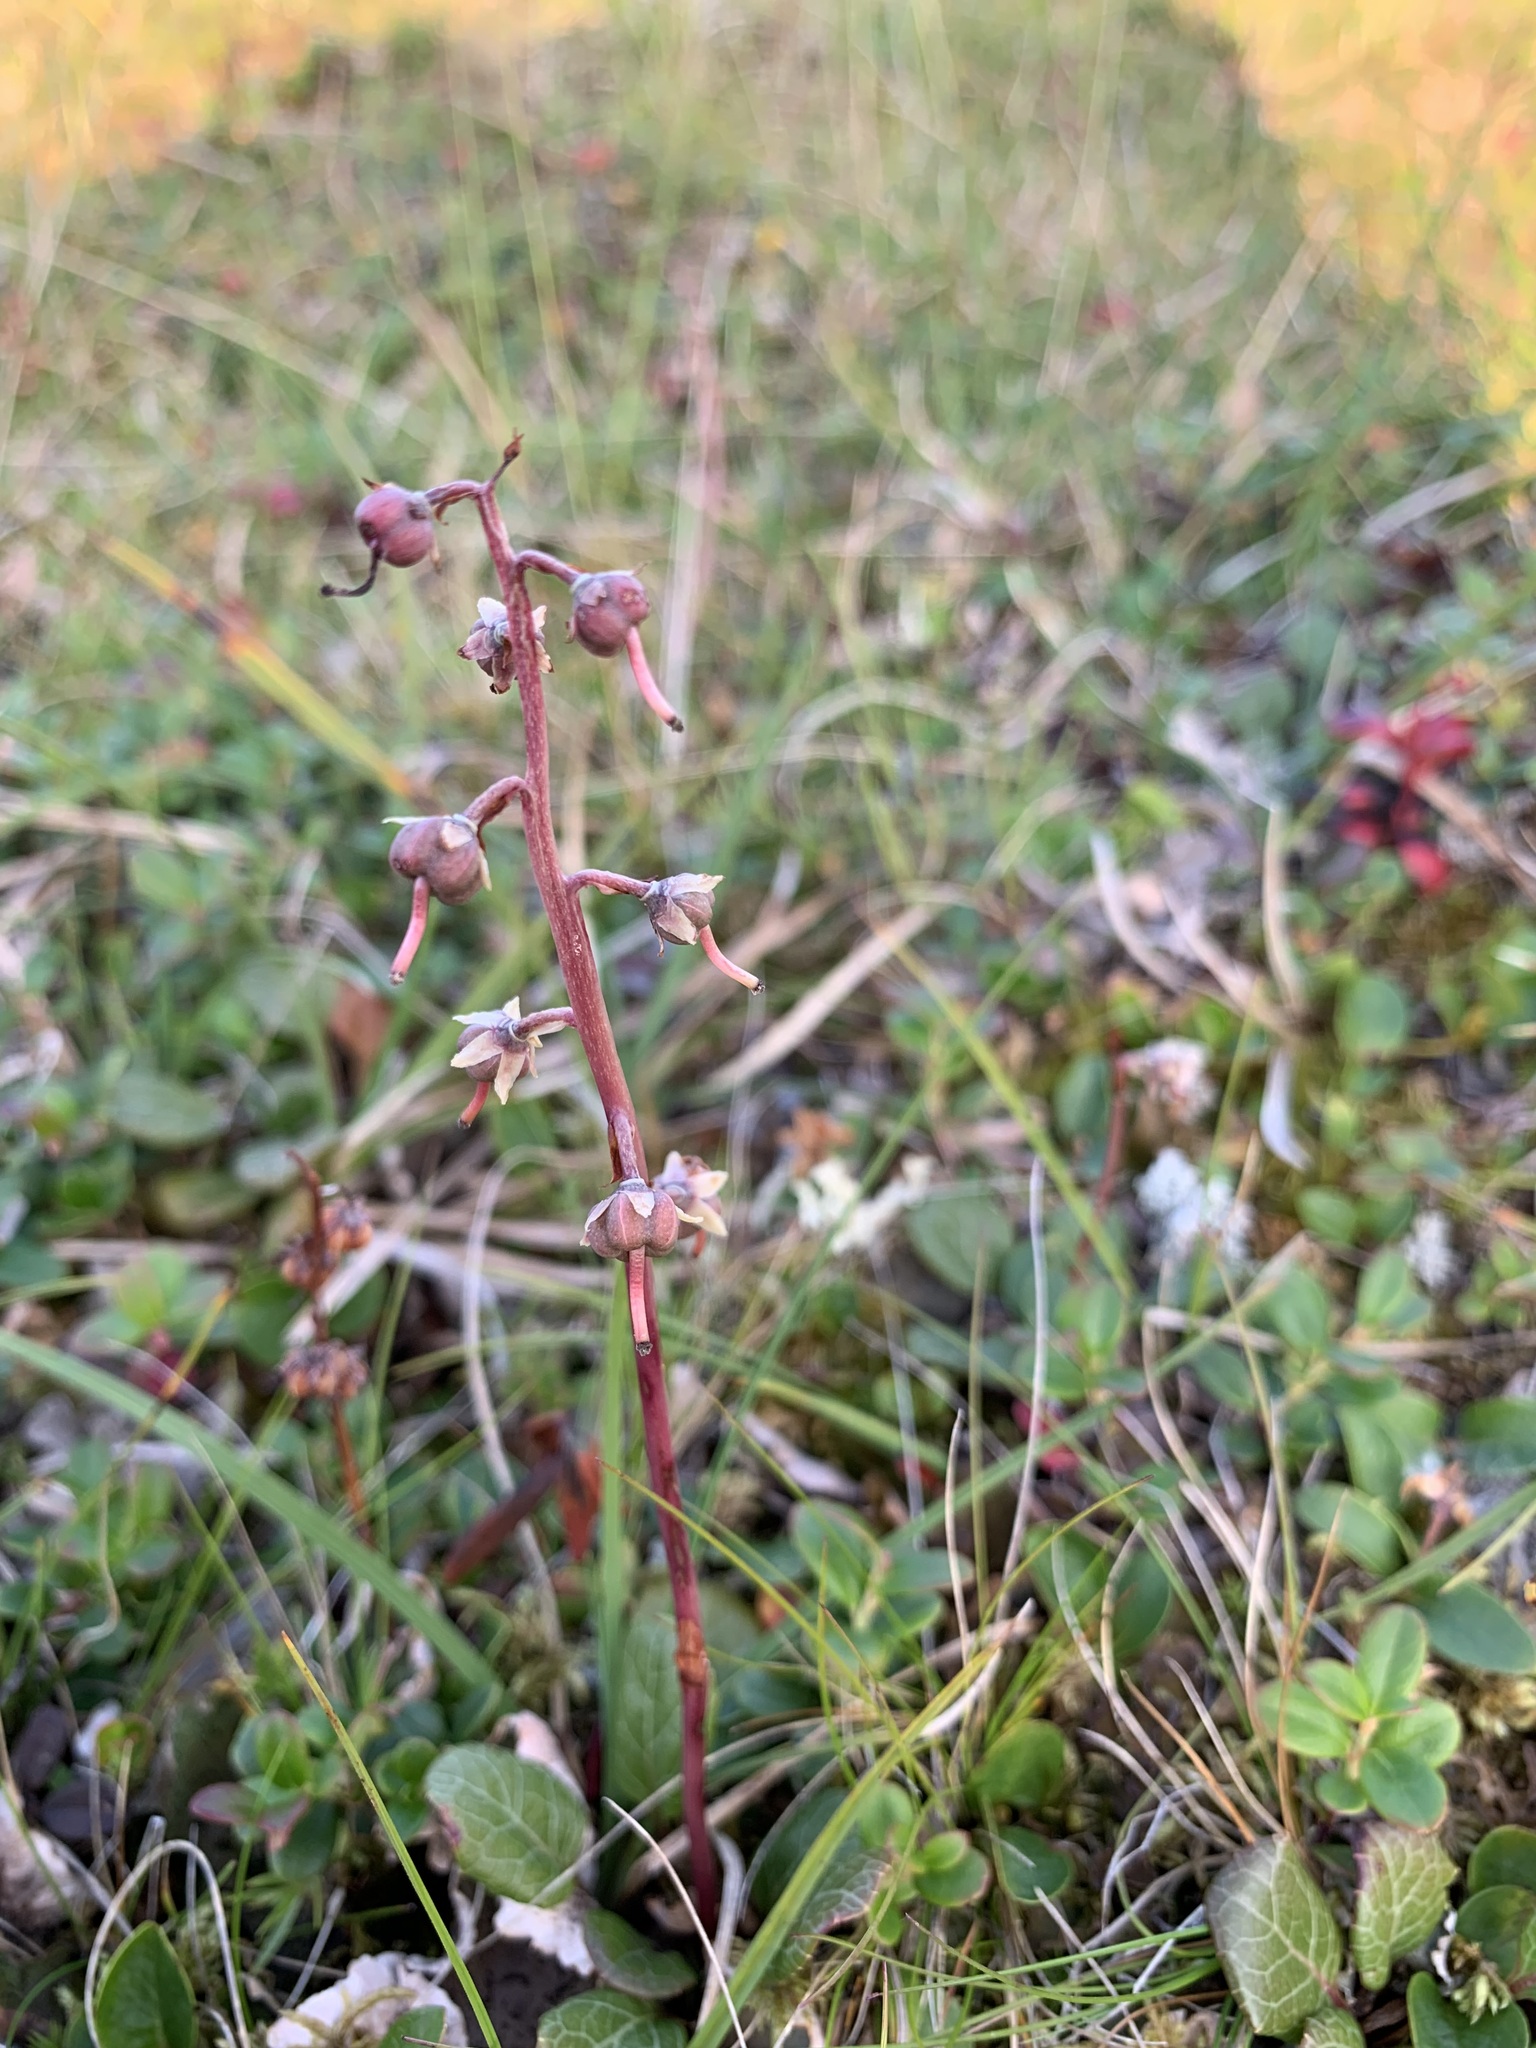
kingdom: Plantae
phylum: Tracheophyta
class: Magnoliopsida
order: Ericales
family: Ericaceae
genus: Pyrola
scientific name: Pyrola grandiflora
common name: Arctic pyrola
